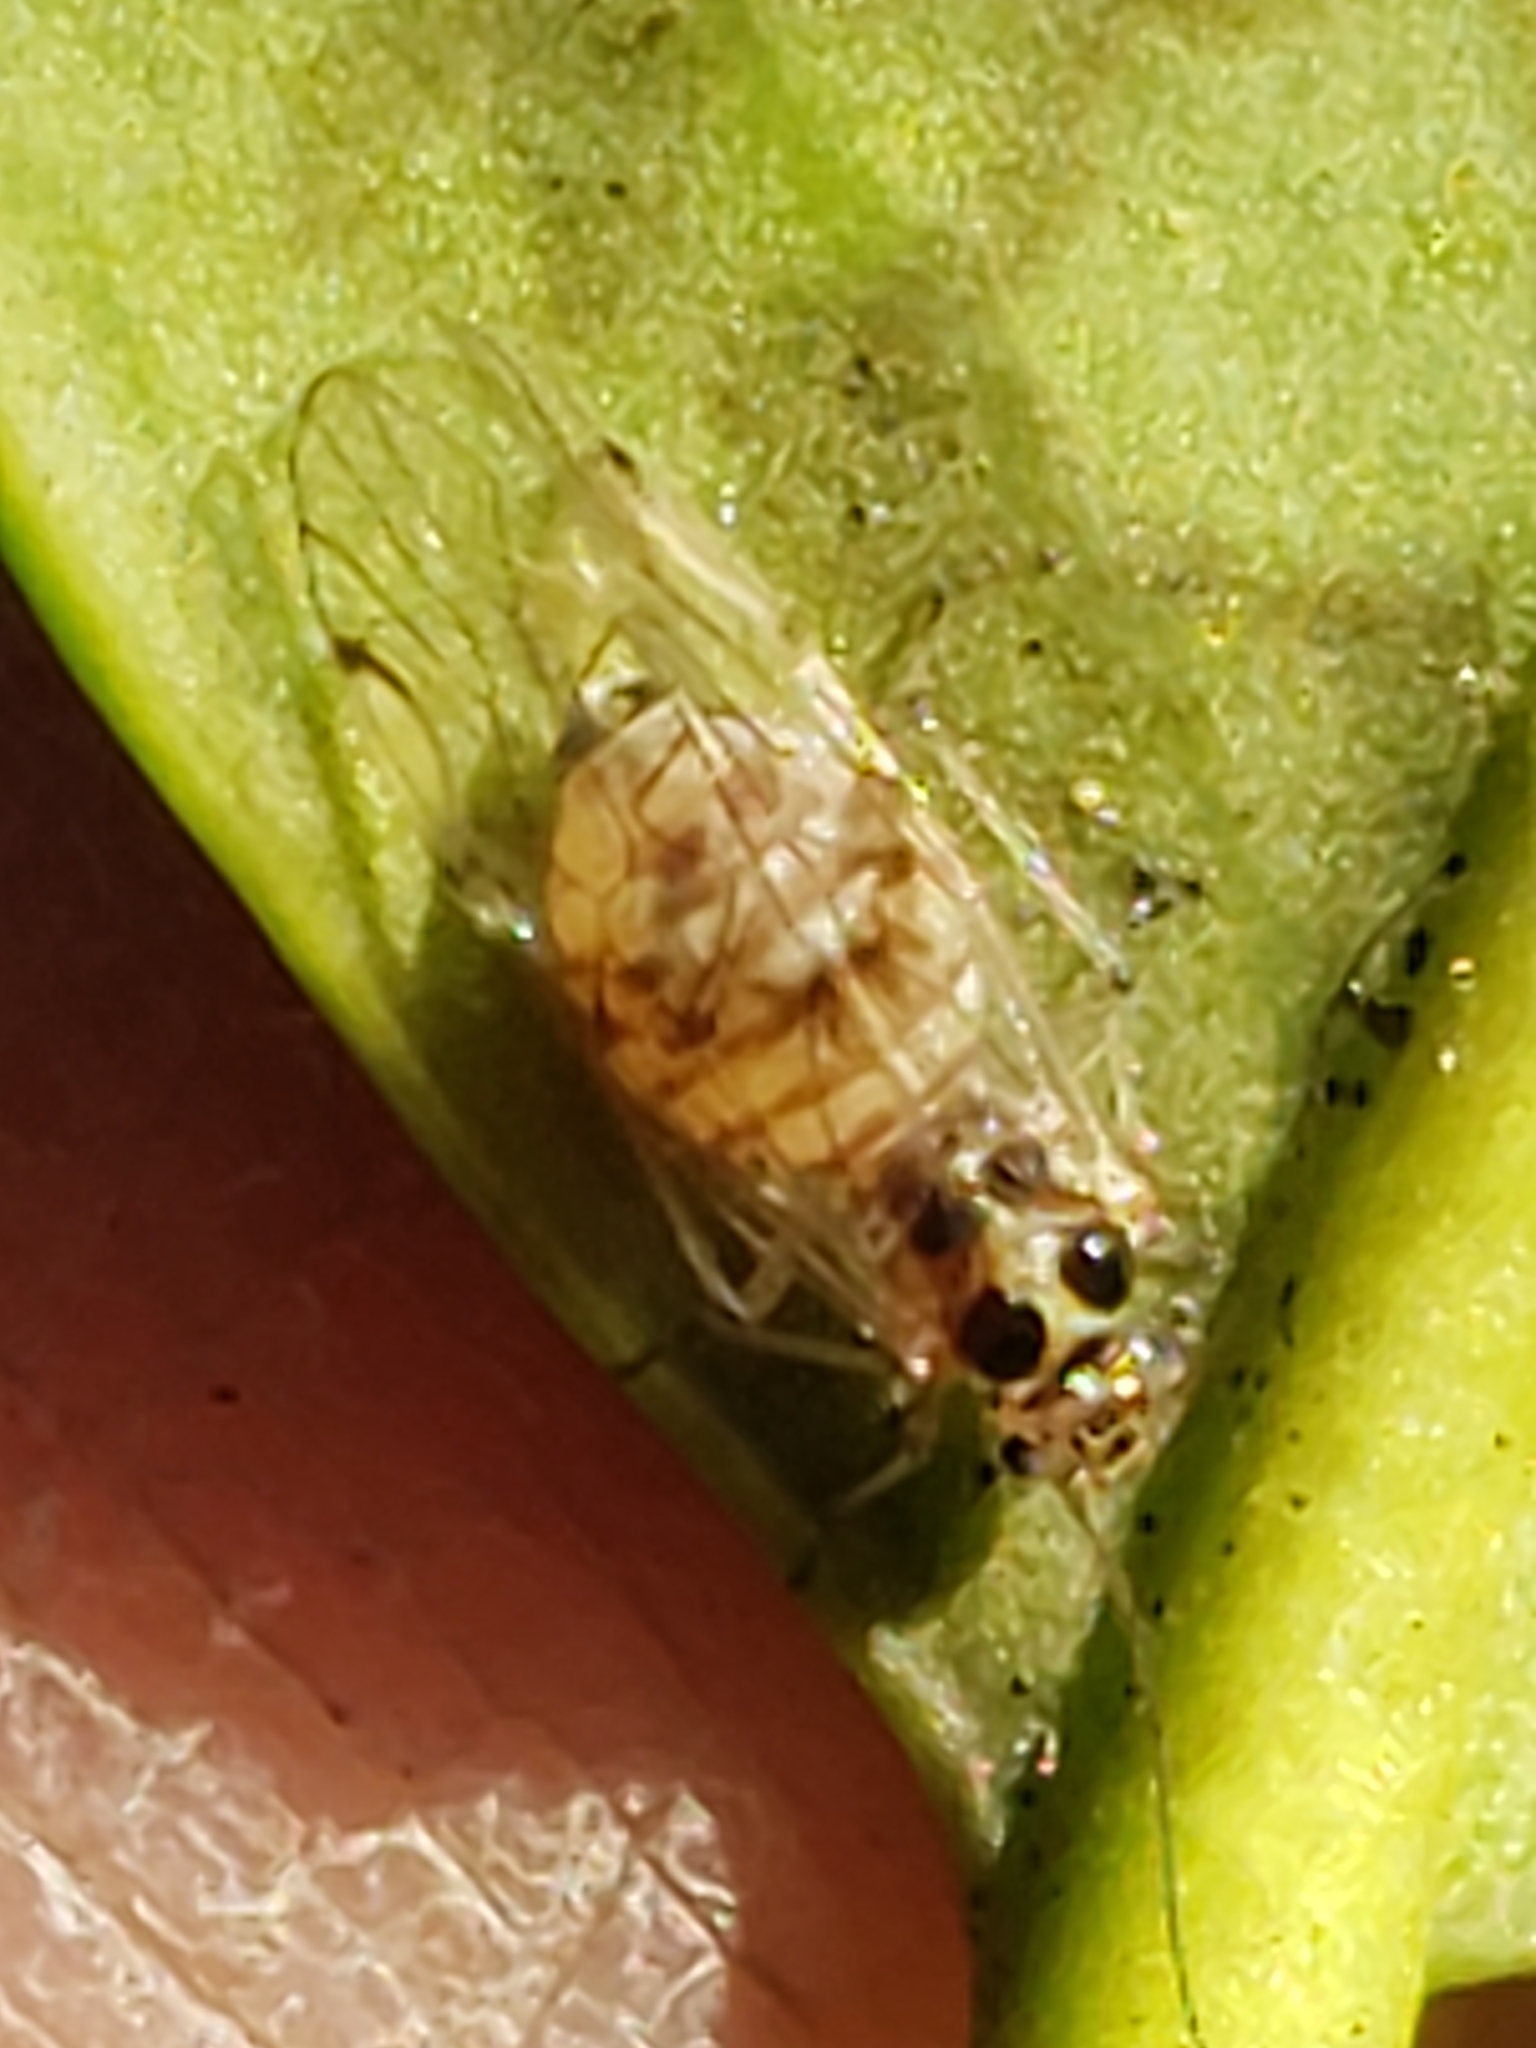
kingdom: Animalia
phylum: Arthropoda
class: Insecta
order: Psocodea
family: Dasydemellidae
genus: Teliapsocus
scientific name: Teliapsocus conterminus
